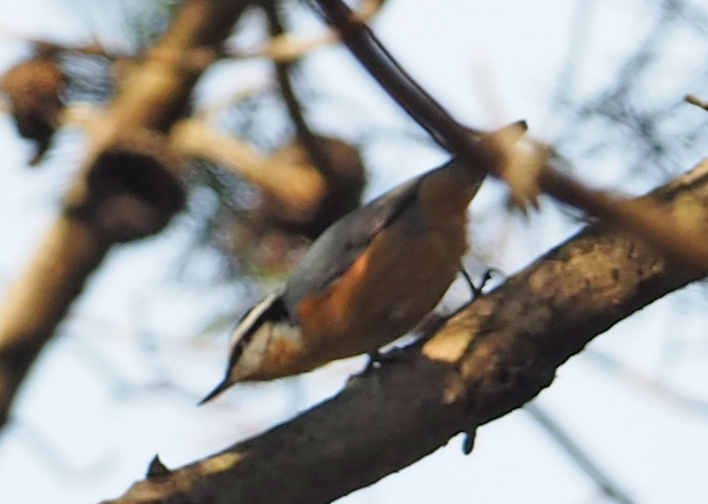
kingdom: Animalia
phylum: Chordata
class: Aves
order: Passeriformes
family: Sittidae
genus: Sitta
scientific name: Sitta canadensis
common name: Red-breasted nuthatch
